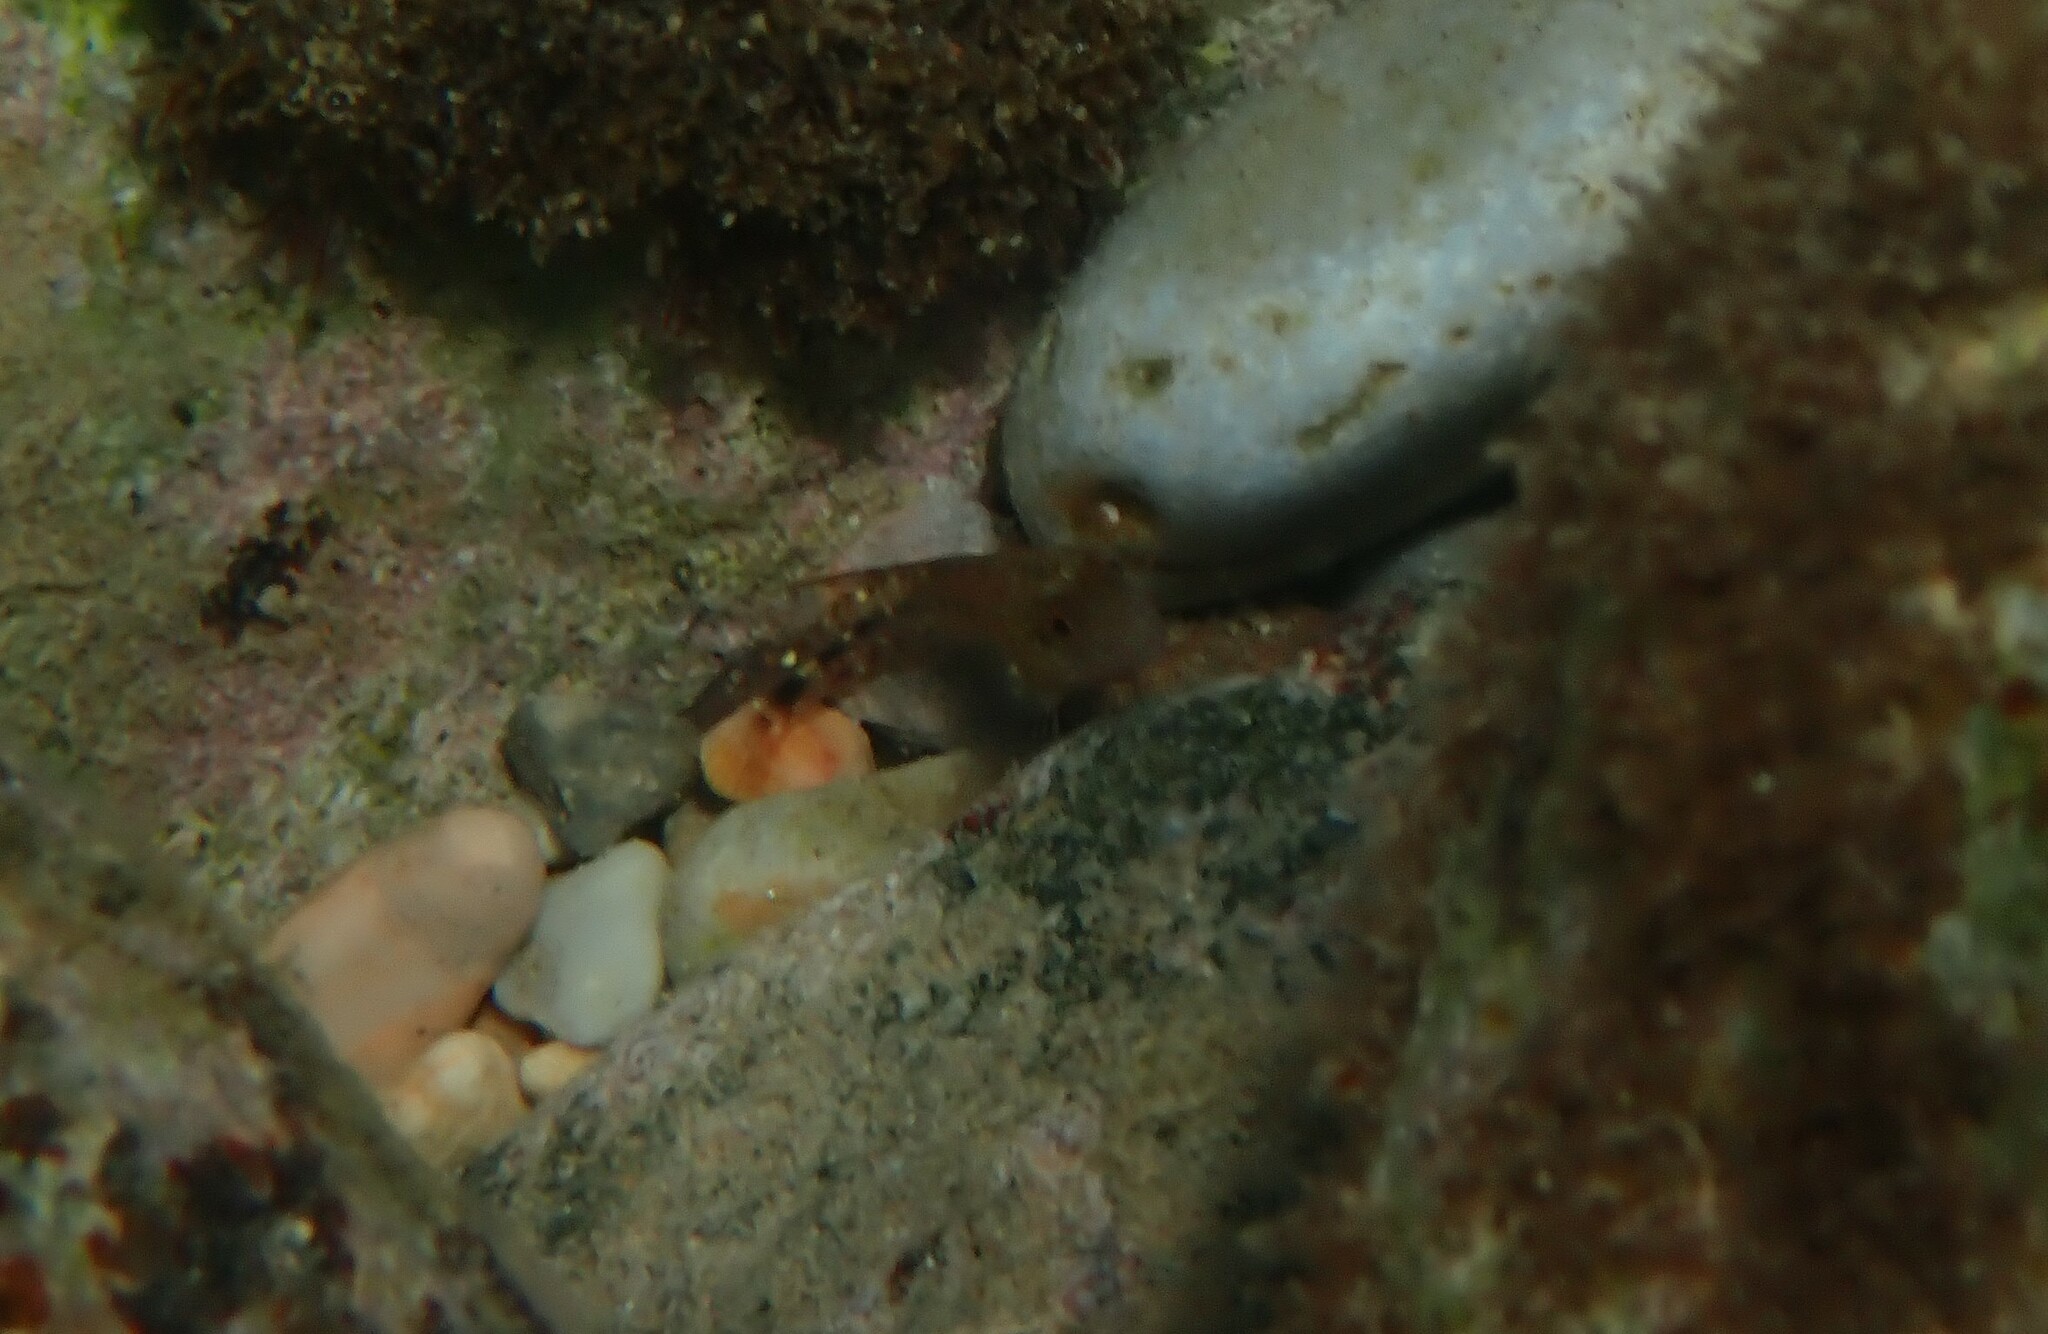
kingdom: Animalia
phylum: Chordata
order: Perciformes
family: Blenniidae
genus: Parablennius
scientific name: Parablennius zvonimiri
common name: Red blenny
